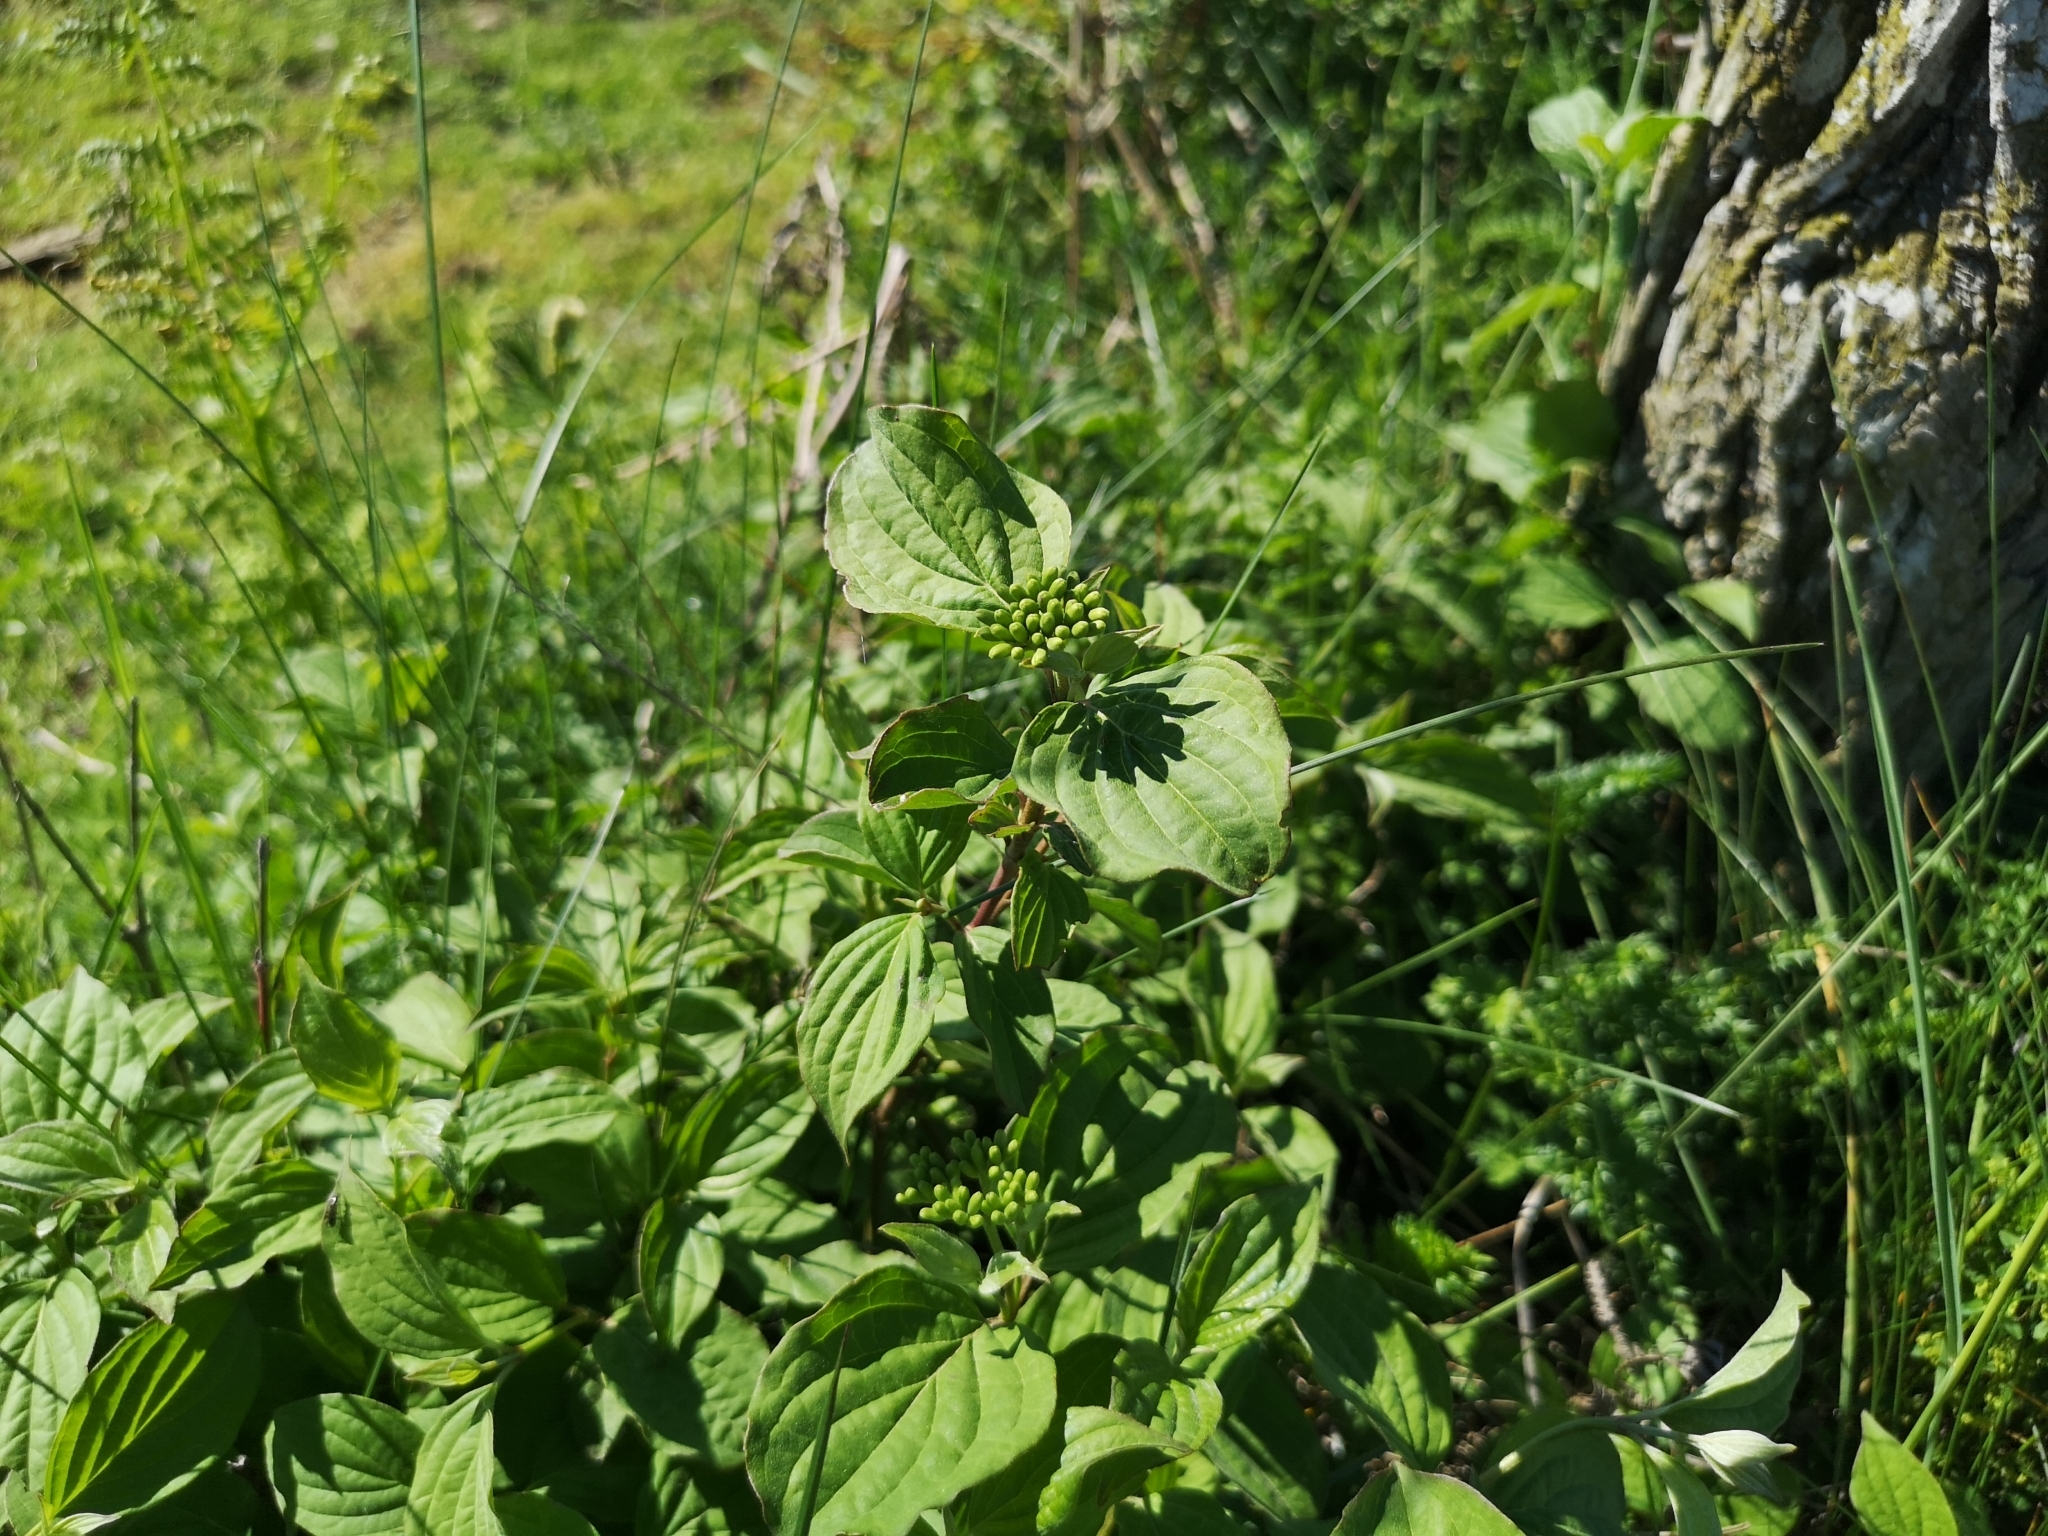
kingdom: Plantae
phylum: Tracheophyta
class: Magnoliopsida
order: Cornales
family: Cornaceae
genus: Cornus
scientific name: Cornus sanguinea
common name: Dogwood
